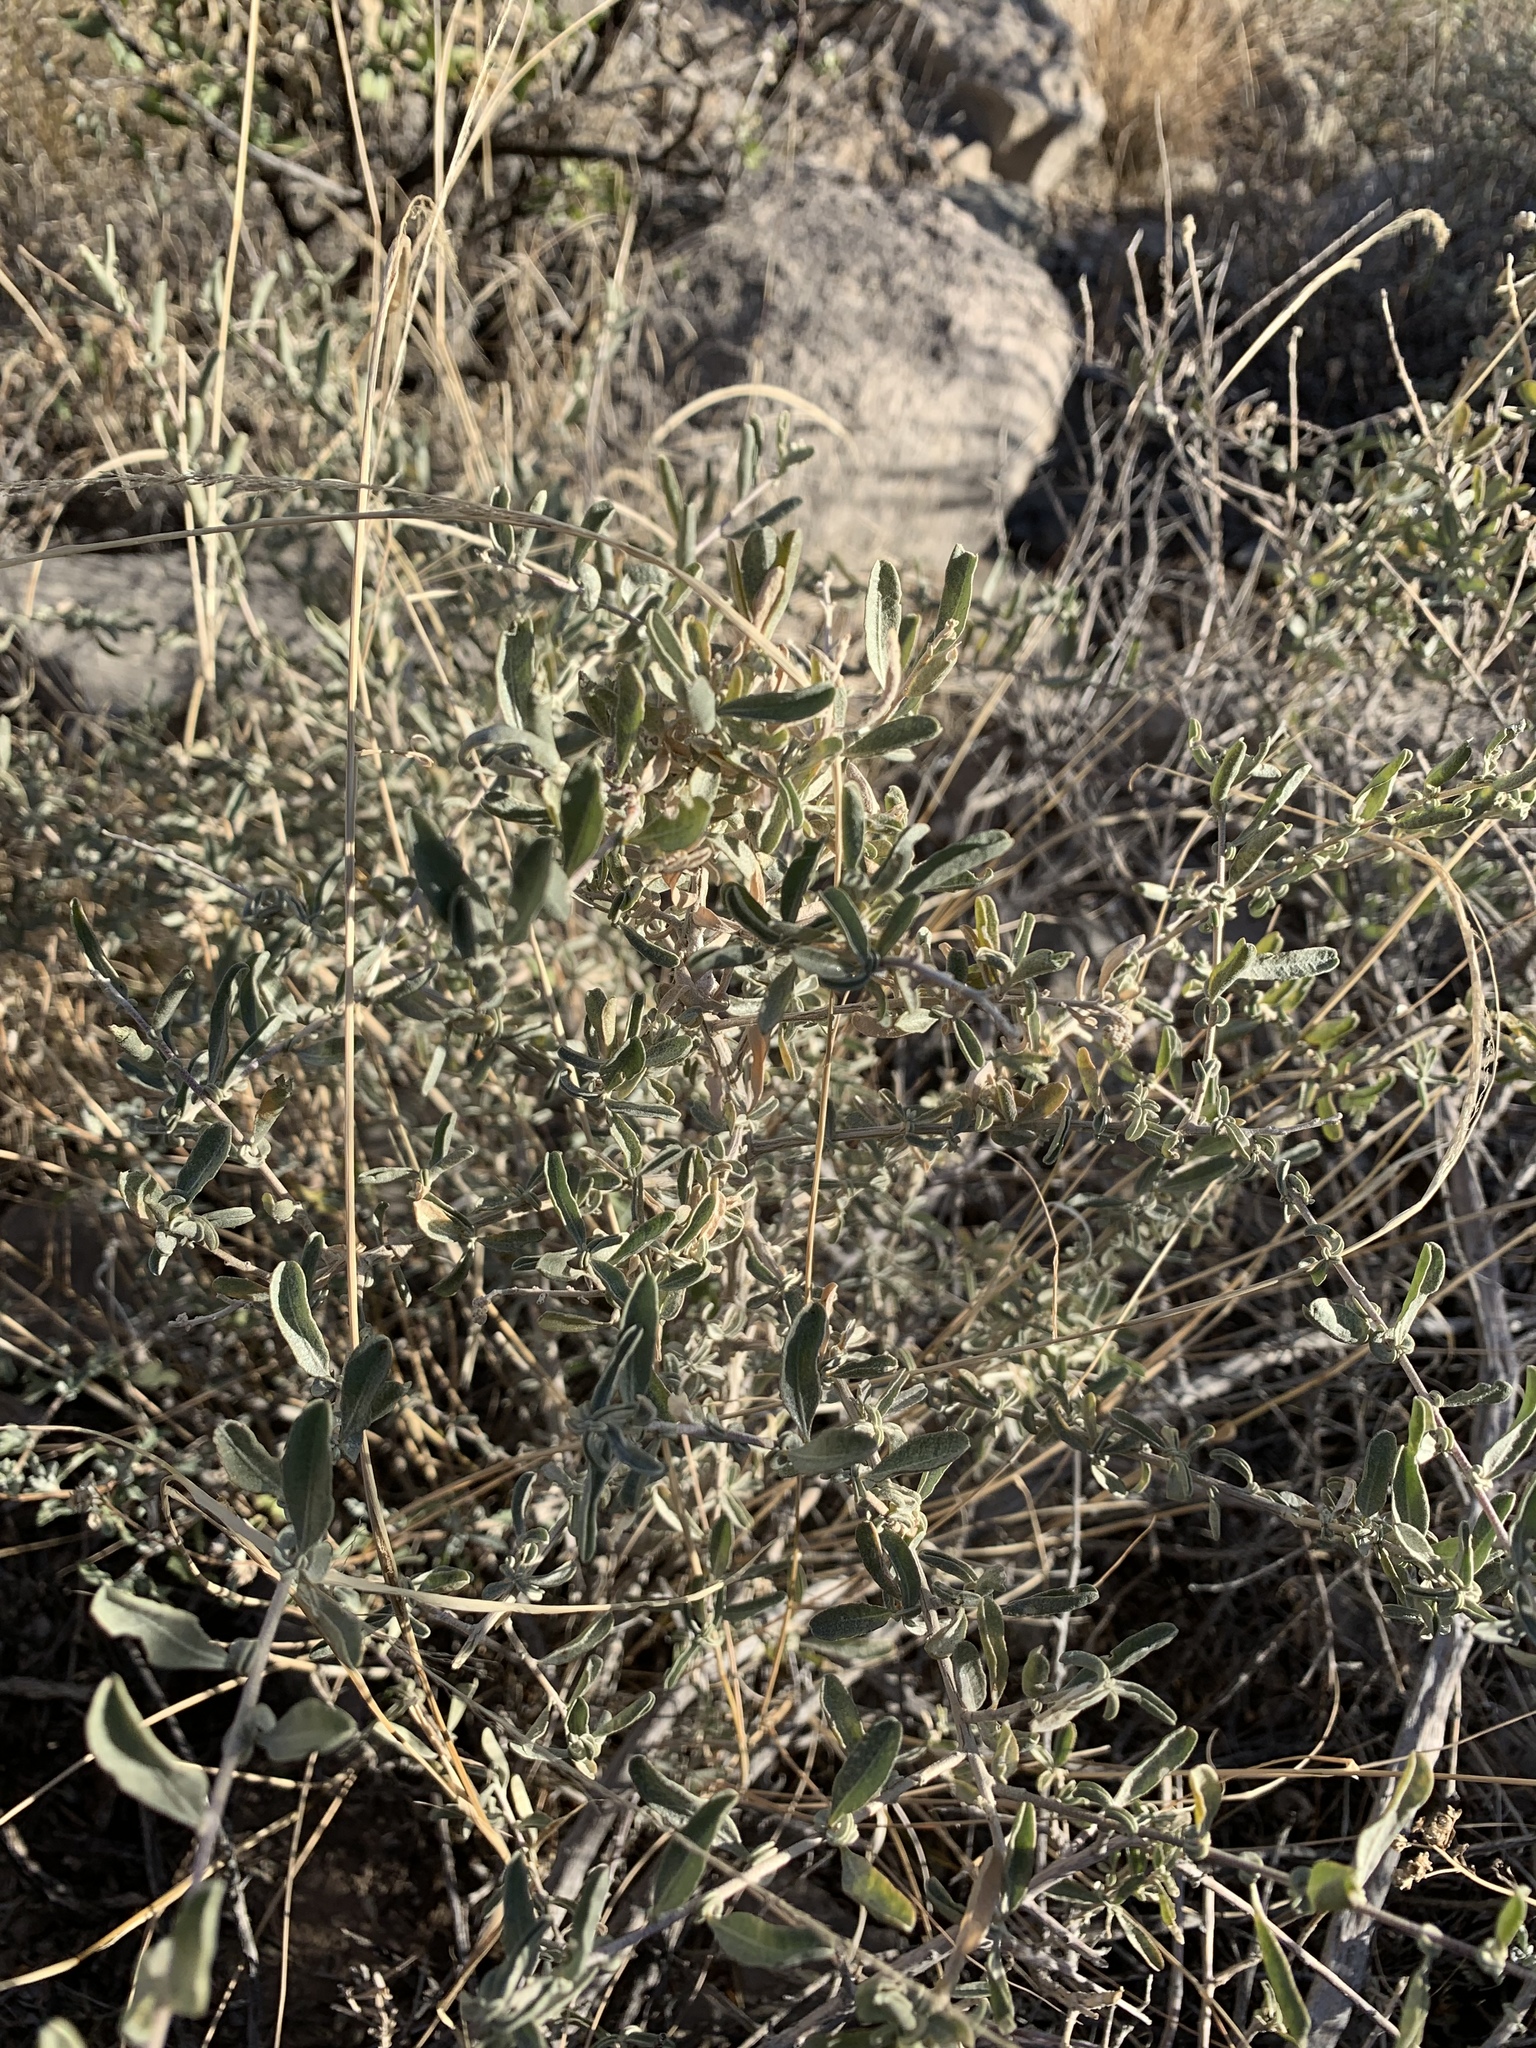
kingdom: Plantae
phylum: Tracheophyta
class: Magnoliopsida
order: Caryophyllales
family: Amaranthaceae
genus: Atriplex
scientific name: Atriplex canescens
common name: Four-wing saltbush
